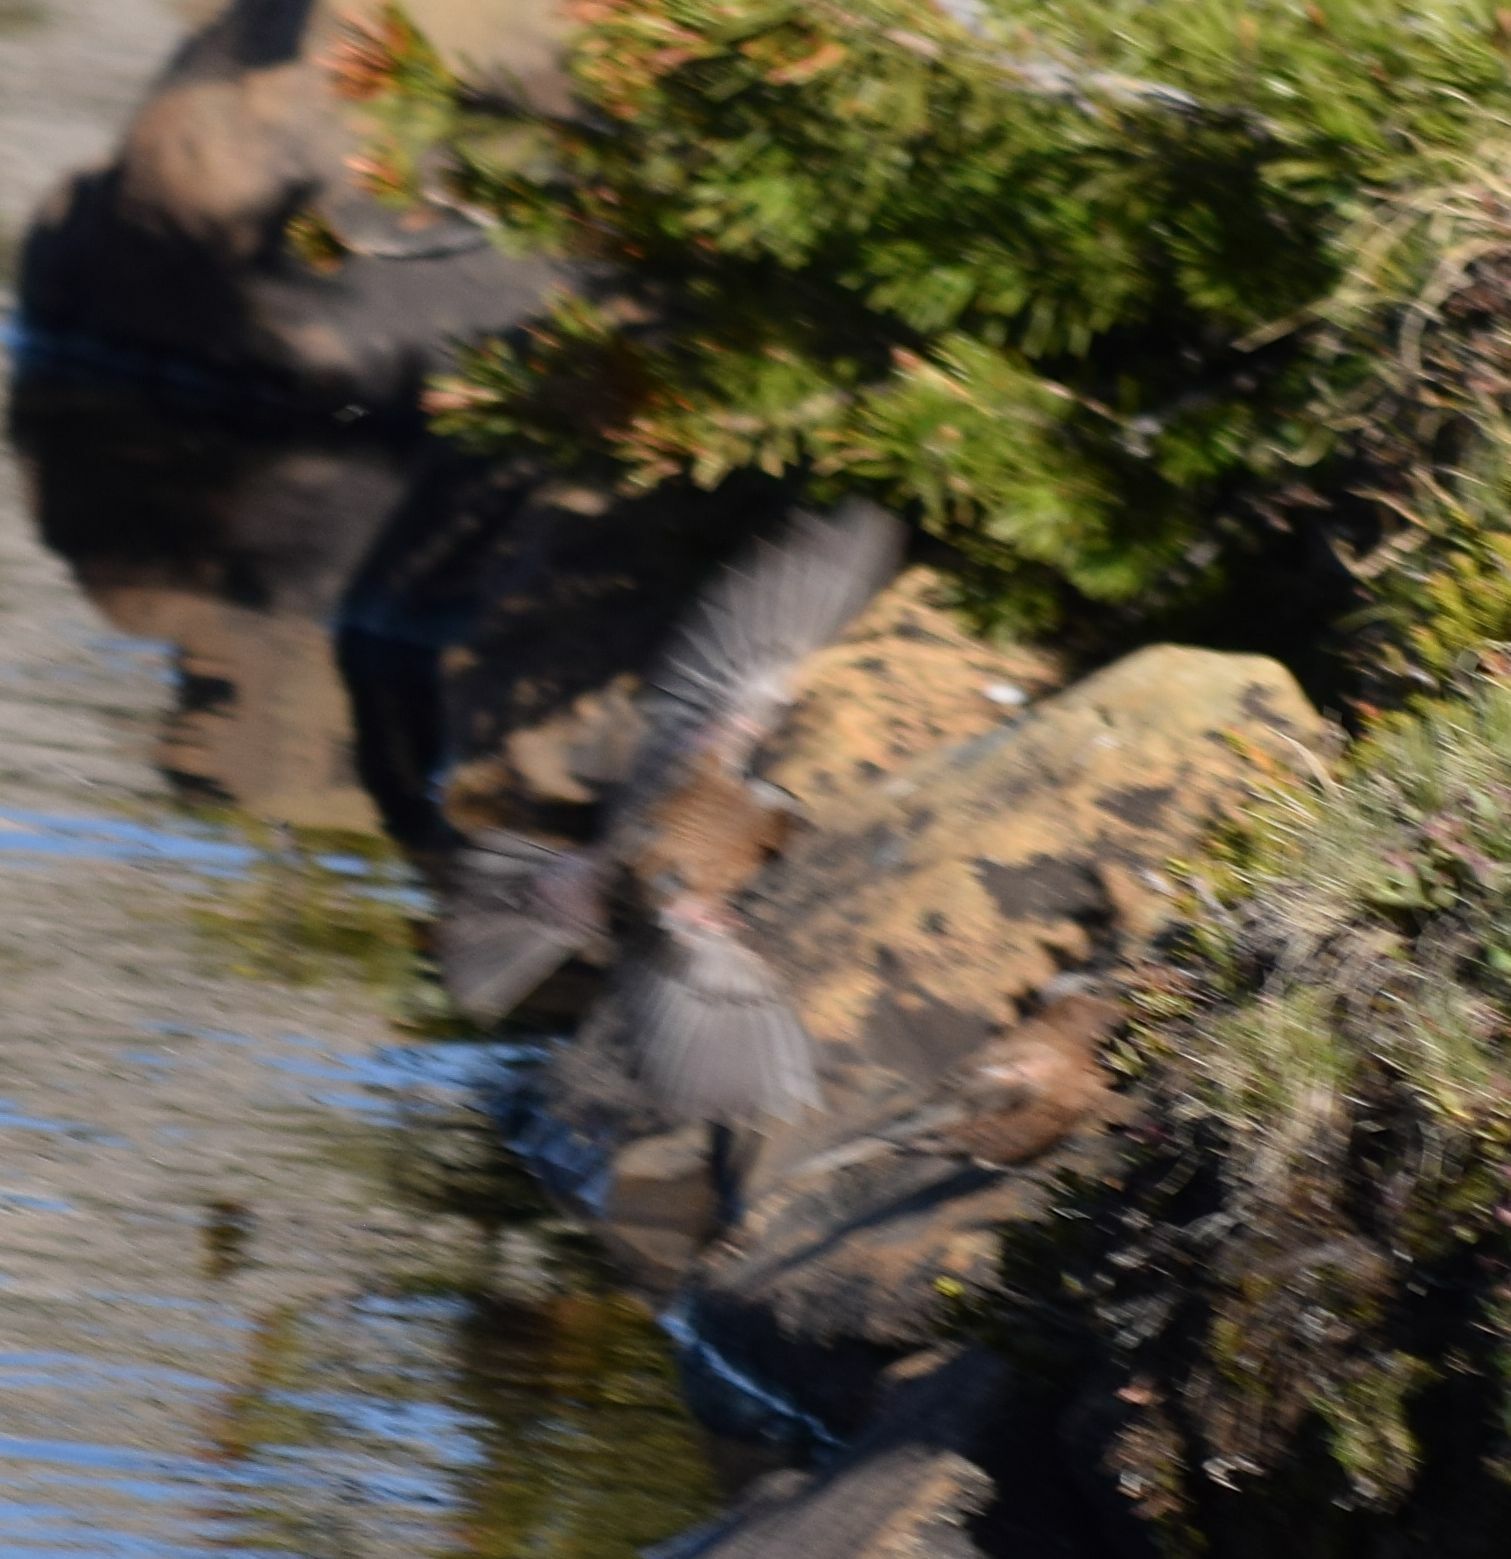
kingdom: Animalia
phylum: Chordata
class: Aves
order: Passeriformes
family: Fringillidae
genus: Leucosticte
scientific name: Leucosticte tephrocotis
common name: Gray-crowned rosy-finch
